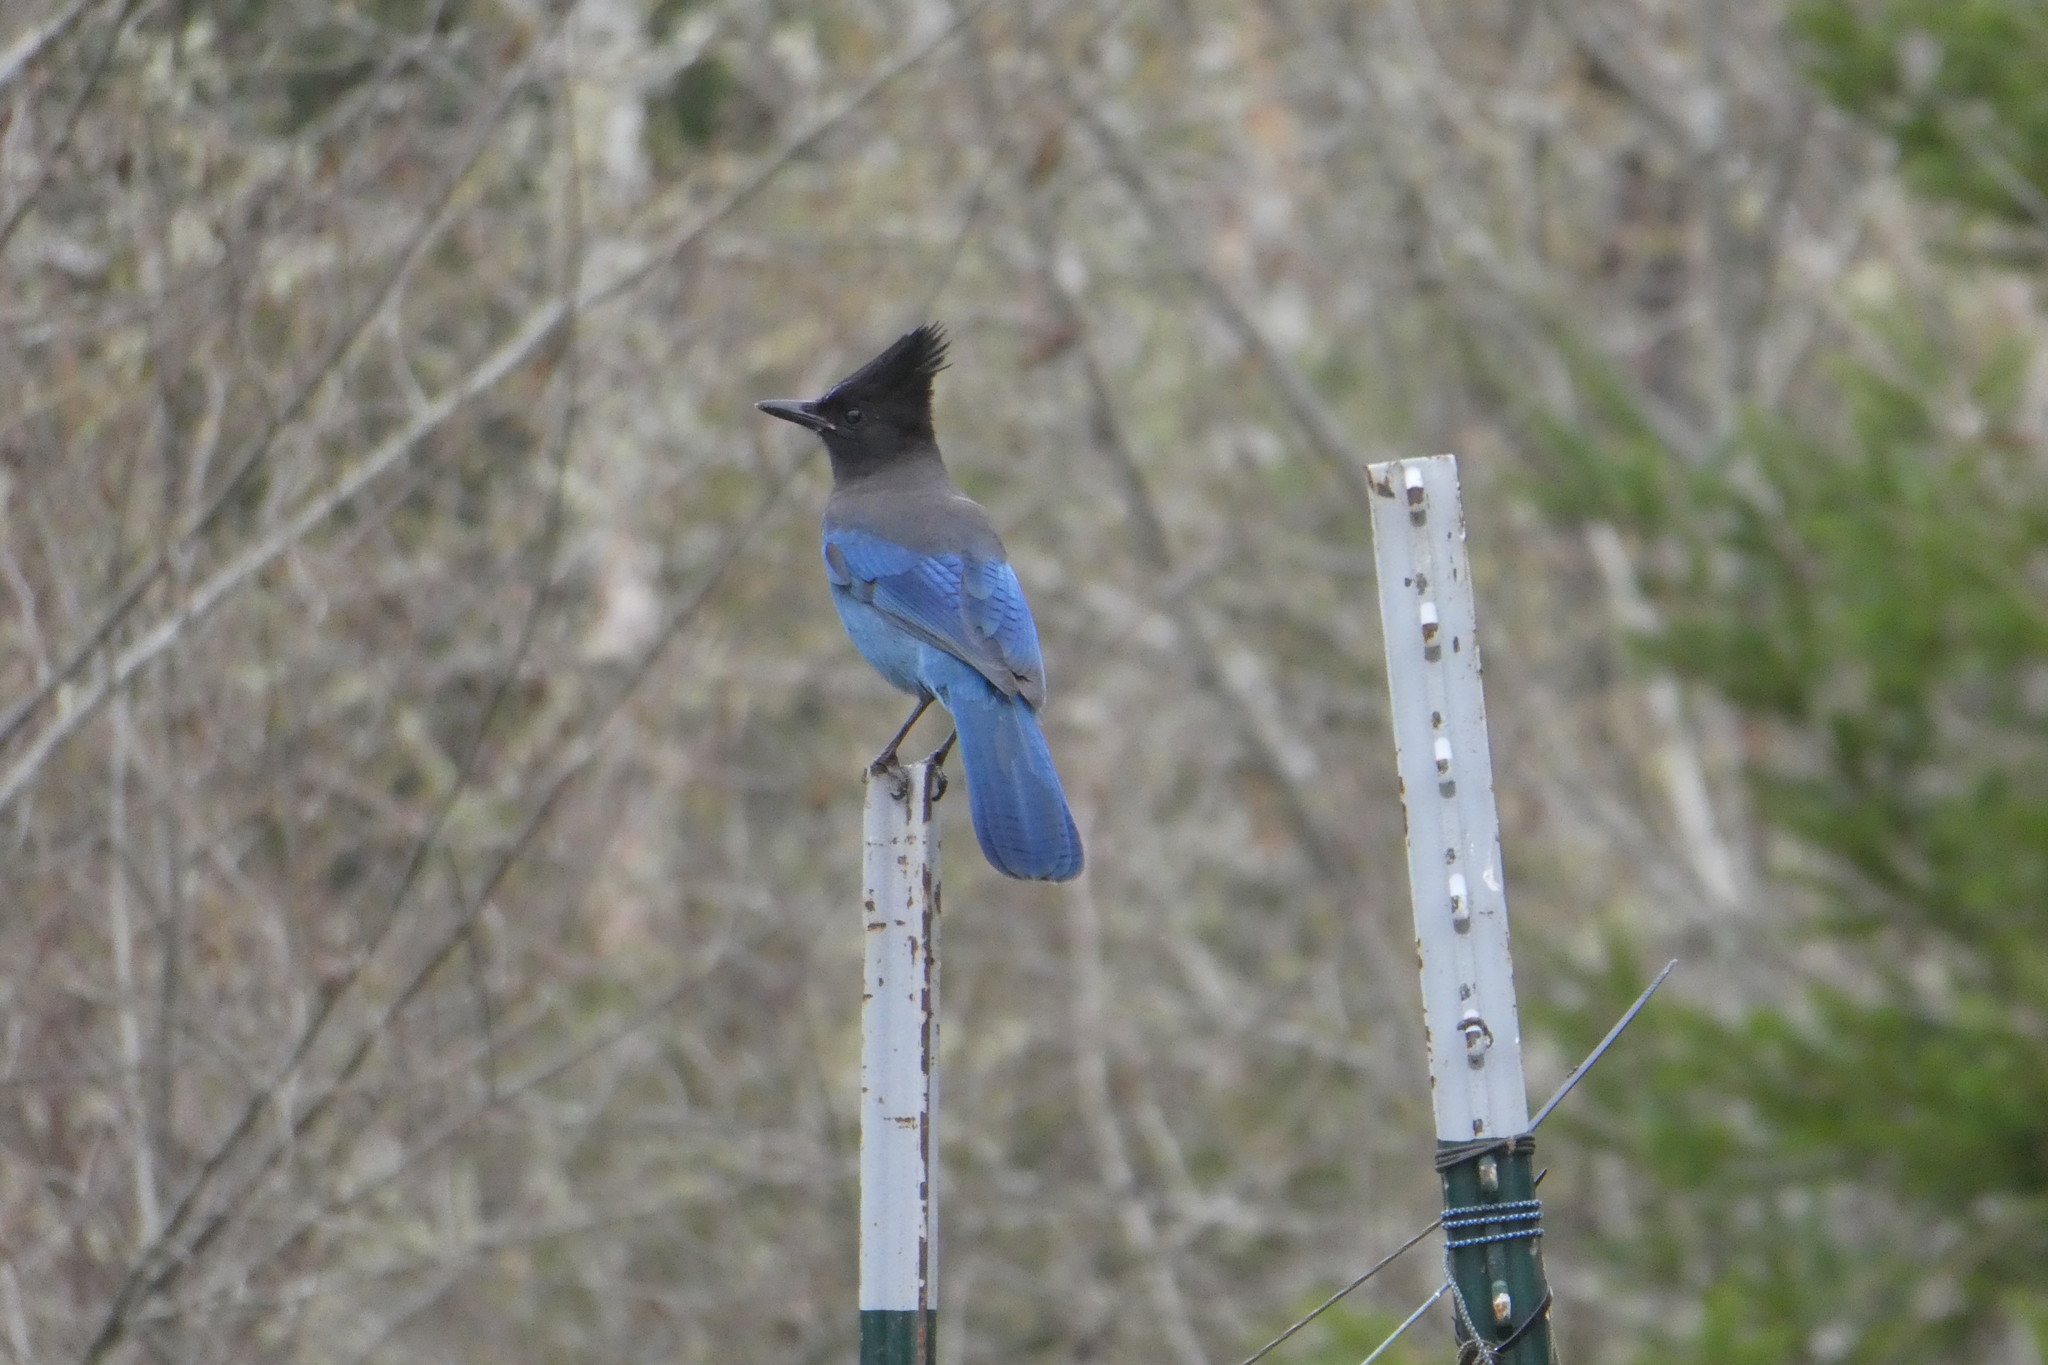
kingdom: Animalia
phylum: Chordata
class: Aves
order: Passeriformes
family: Corvidae
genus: Cyanocitta
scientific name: Cyanocitta stelleri
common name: Steller's jay
